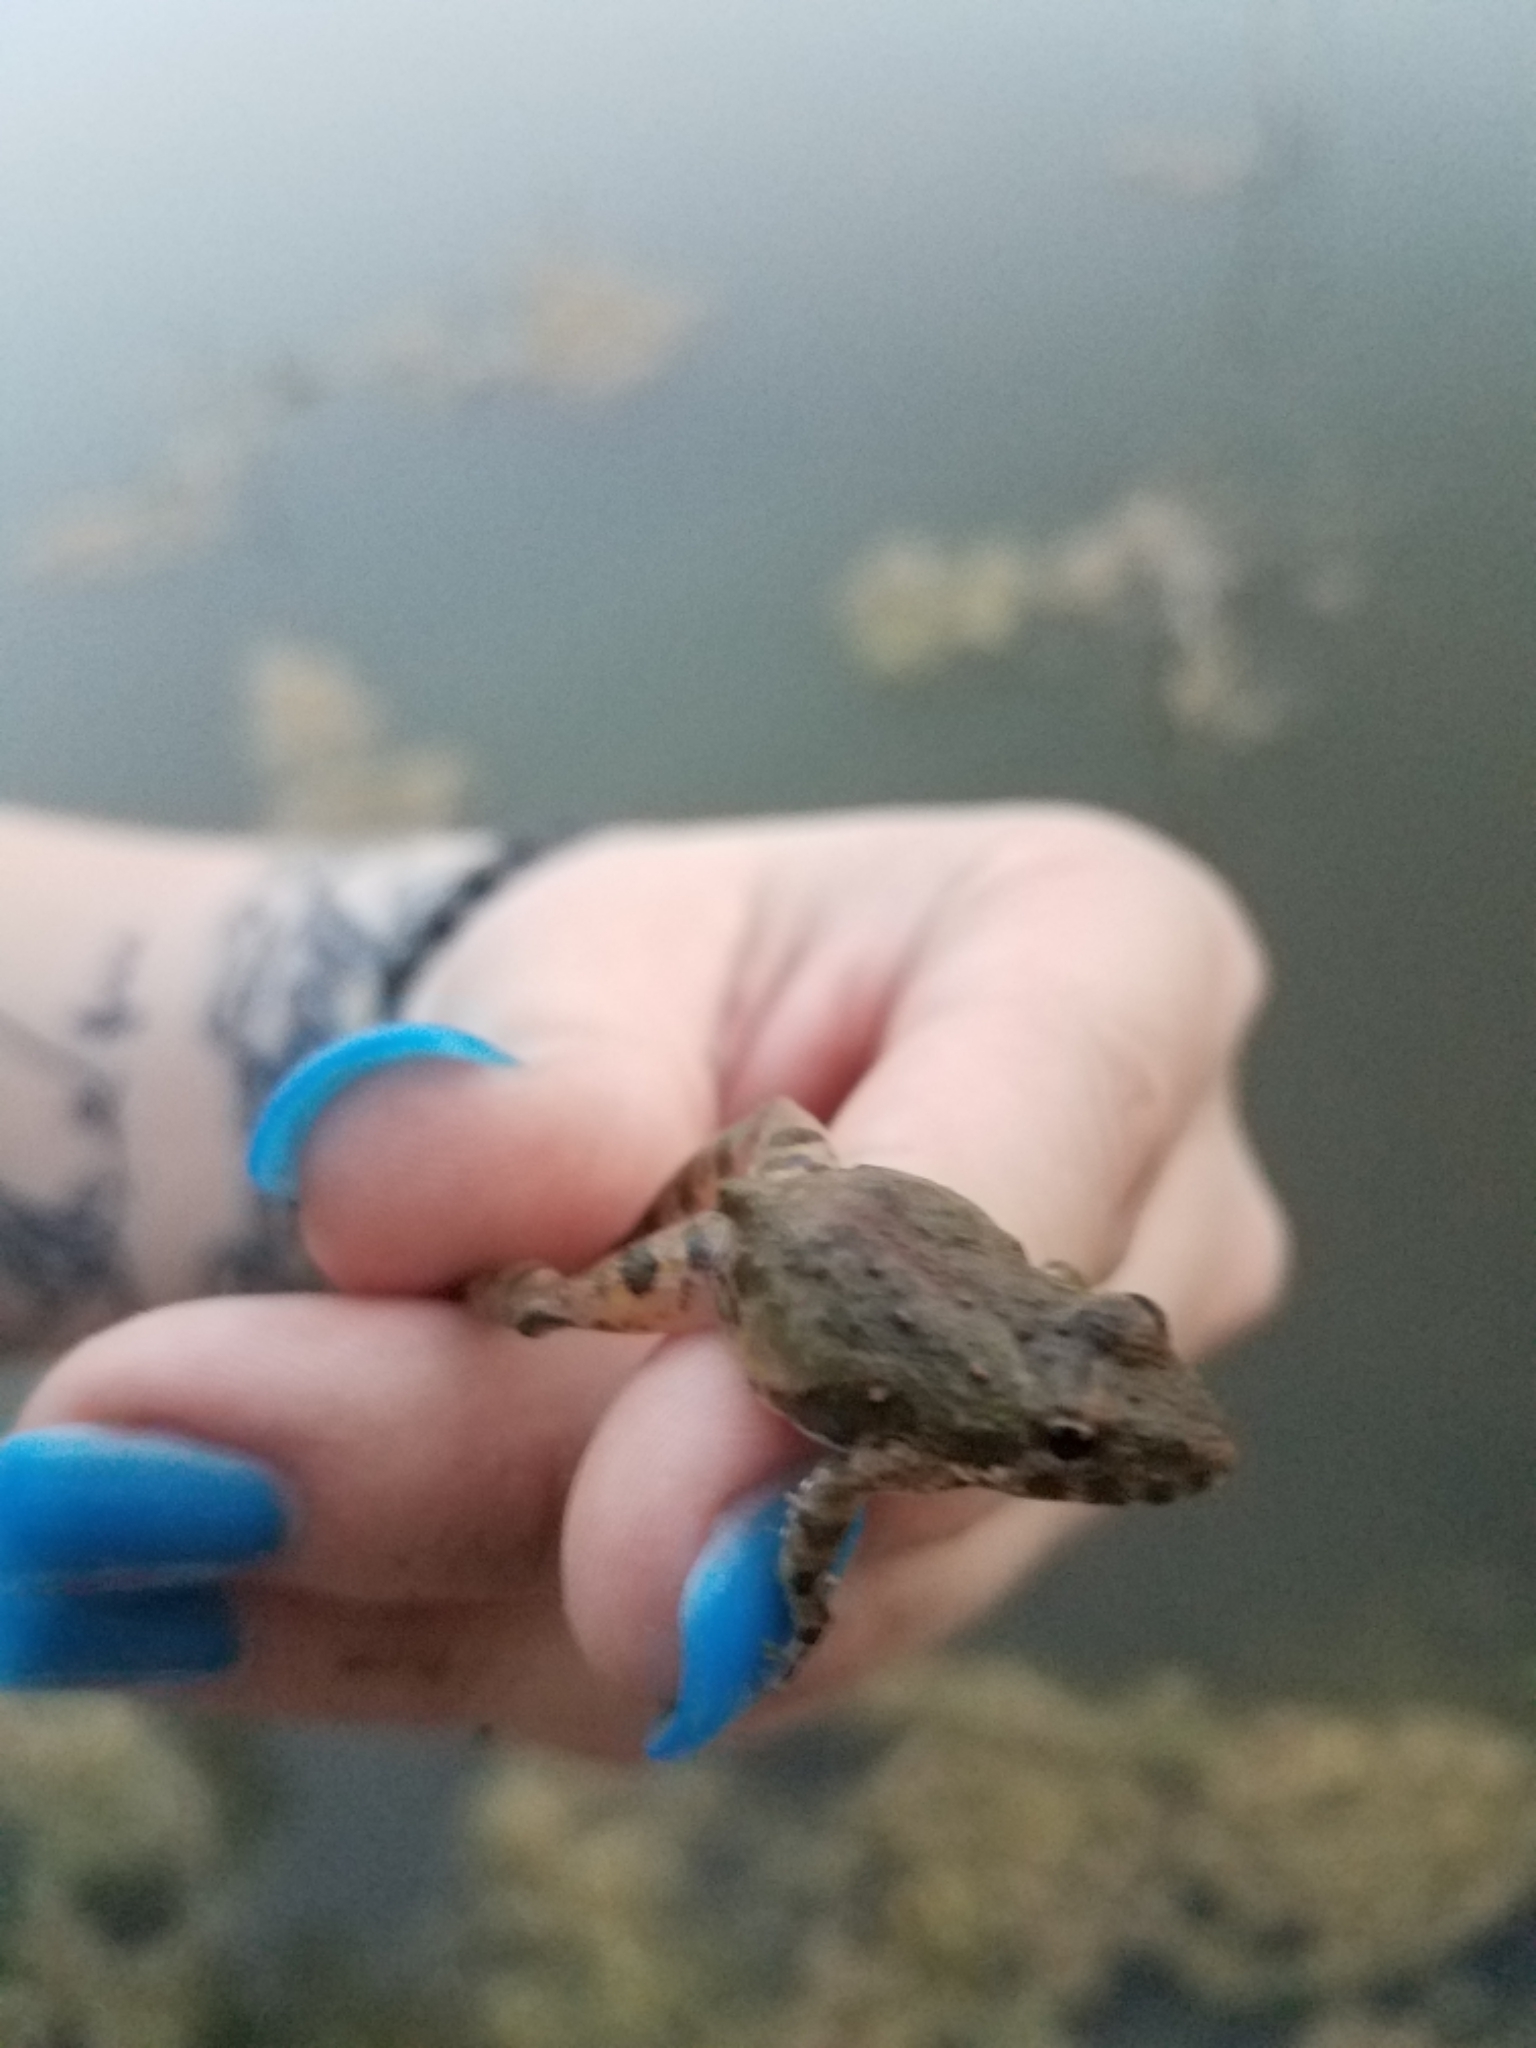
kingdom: Animalia
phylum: Chordata
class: Amphibia
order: Anura
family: Hylidae
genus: Acris
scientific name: Acris blanchardi
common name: Blanchard's cricket frog
